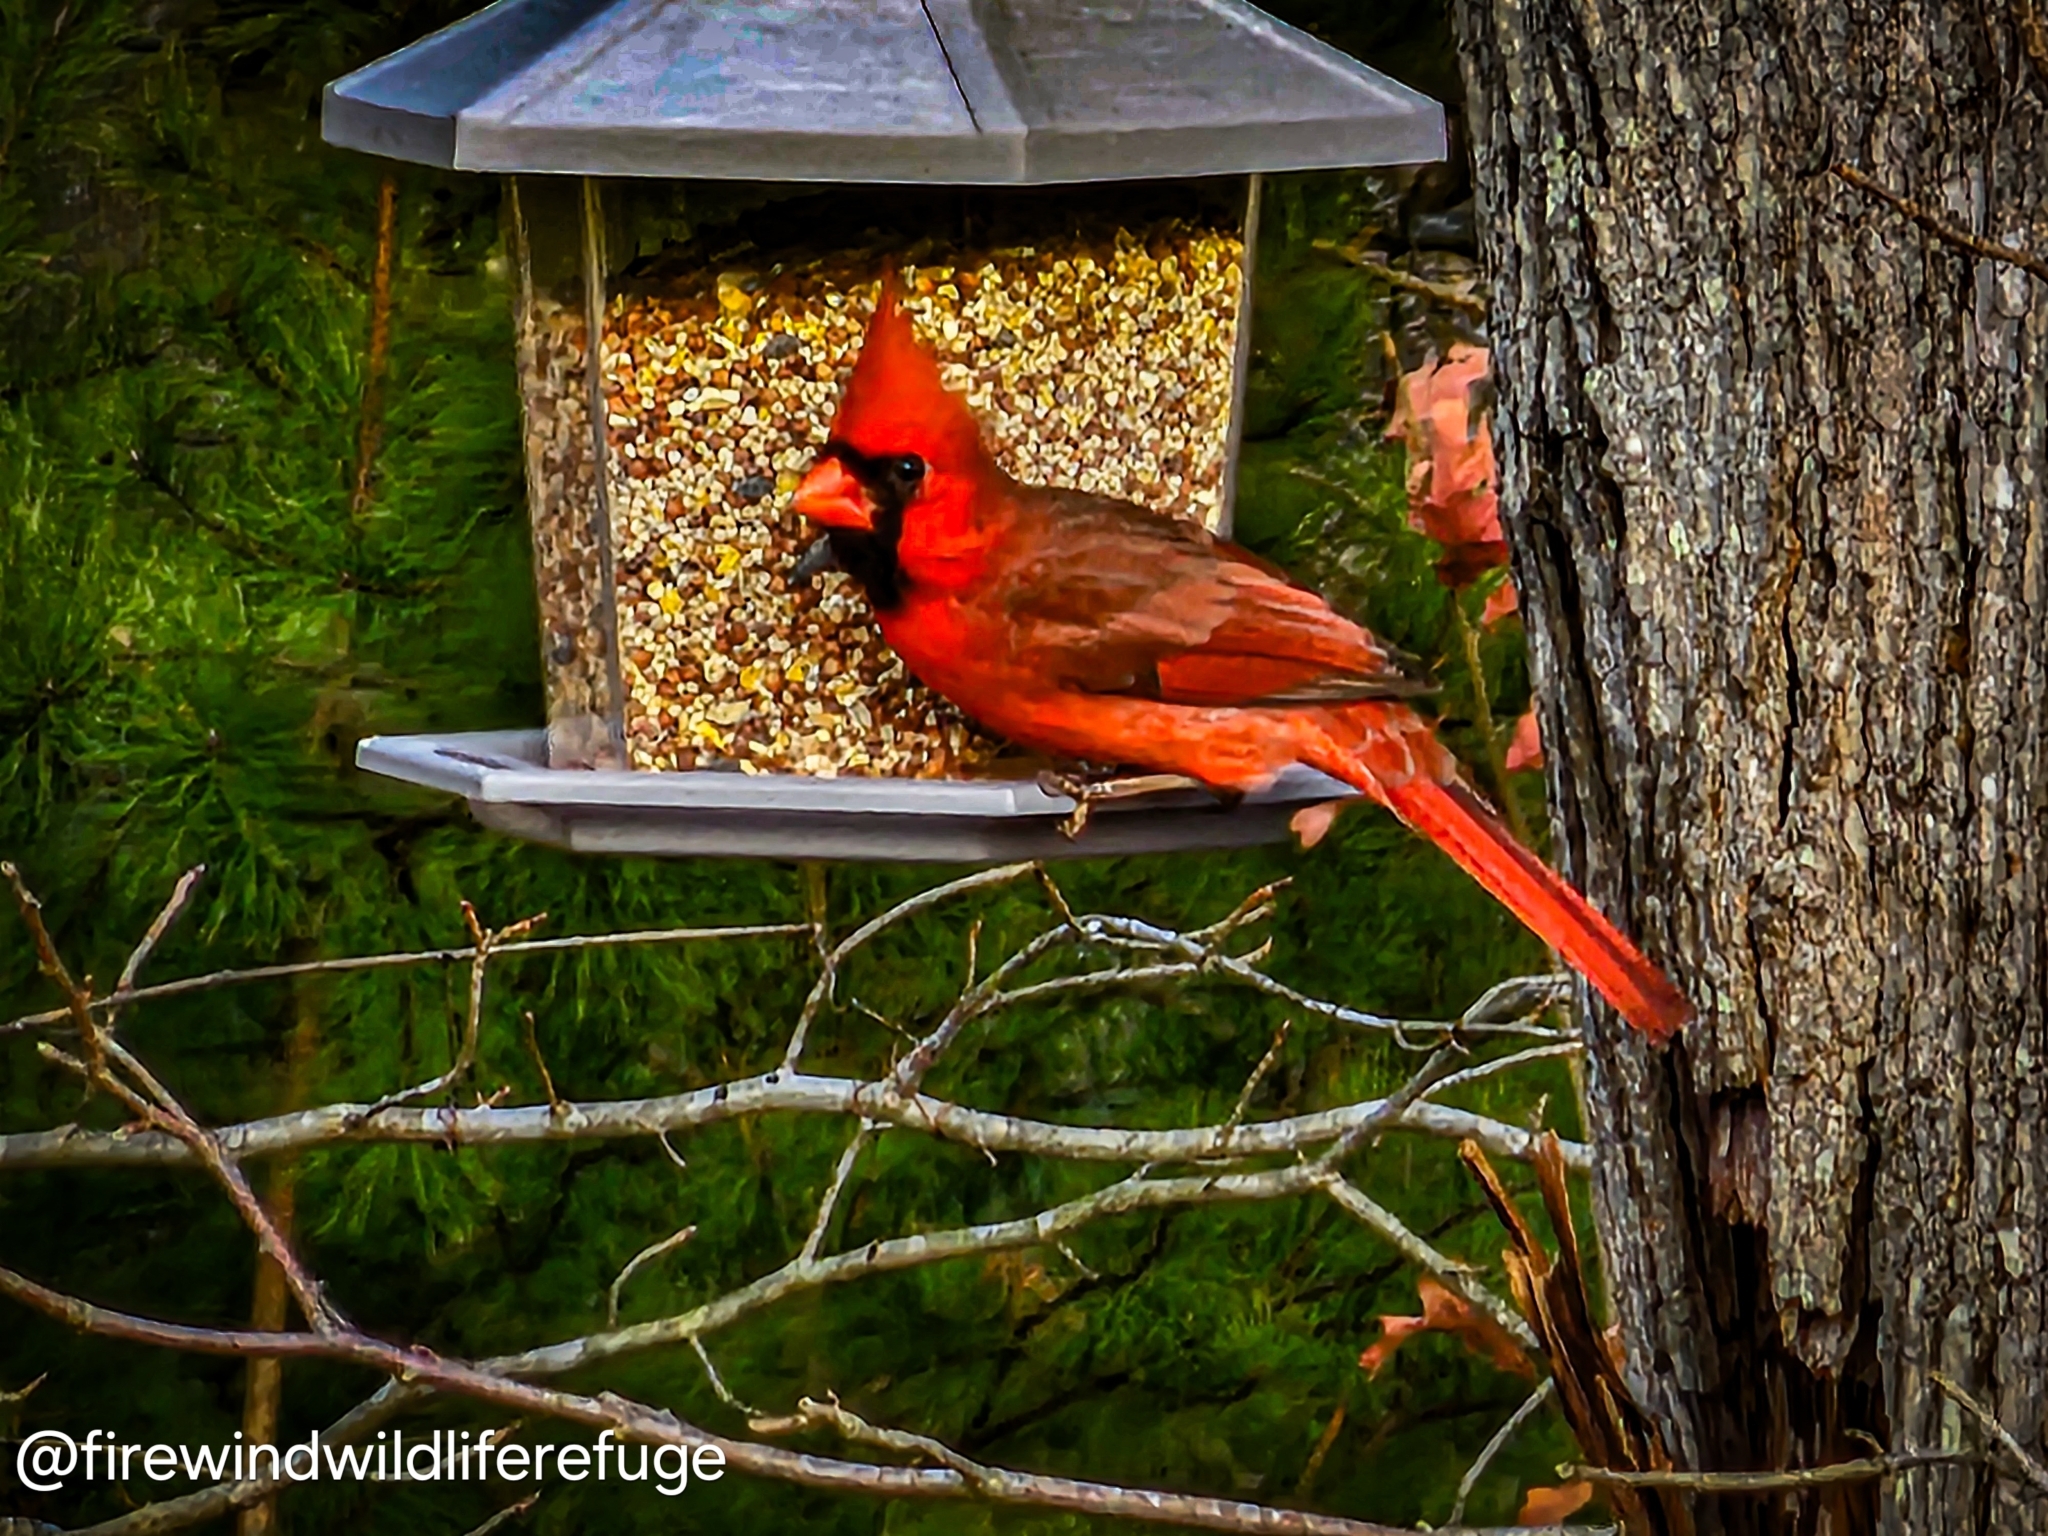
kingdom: Animalia
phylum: Chordata
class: Aves
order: Passeriformes
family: Cardinalidae
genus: Cardinalis
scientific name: Cardinalis cardinalis
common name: Northern cardinal
